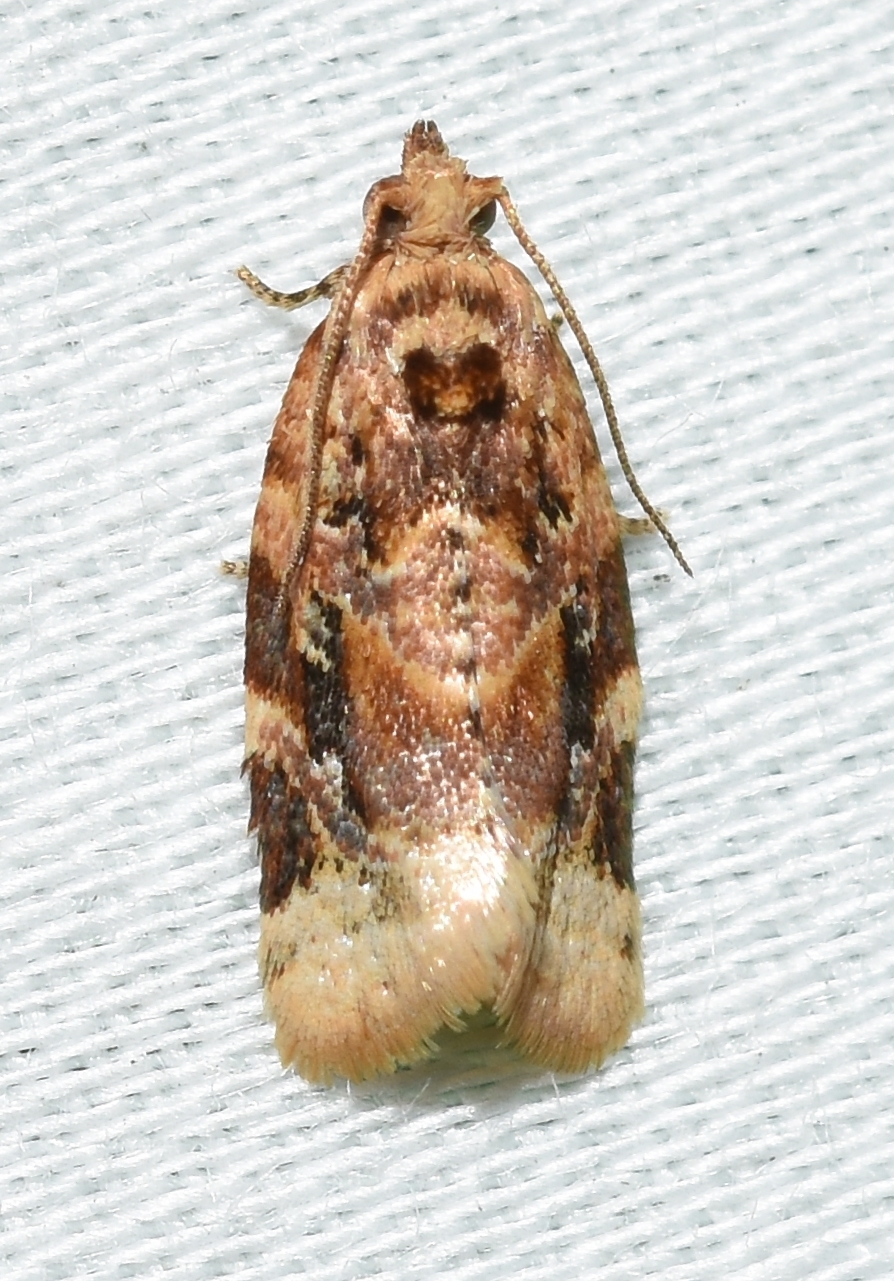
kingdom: Animalia
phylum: Arthropoda
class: Insecta
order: Lepidoptera
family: Tortricidae
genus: Argyrotaenia
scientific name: Argyrotaenia velutinana
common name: Red-banded leafroller moth
